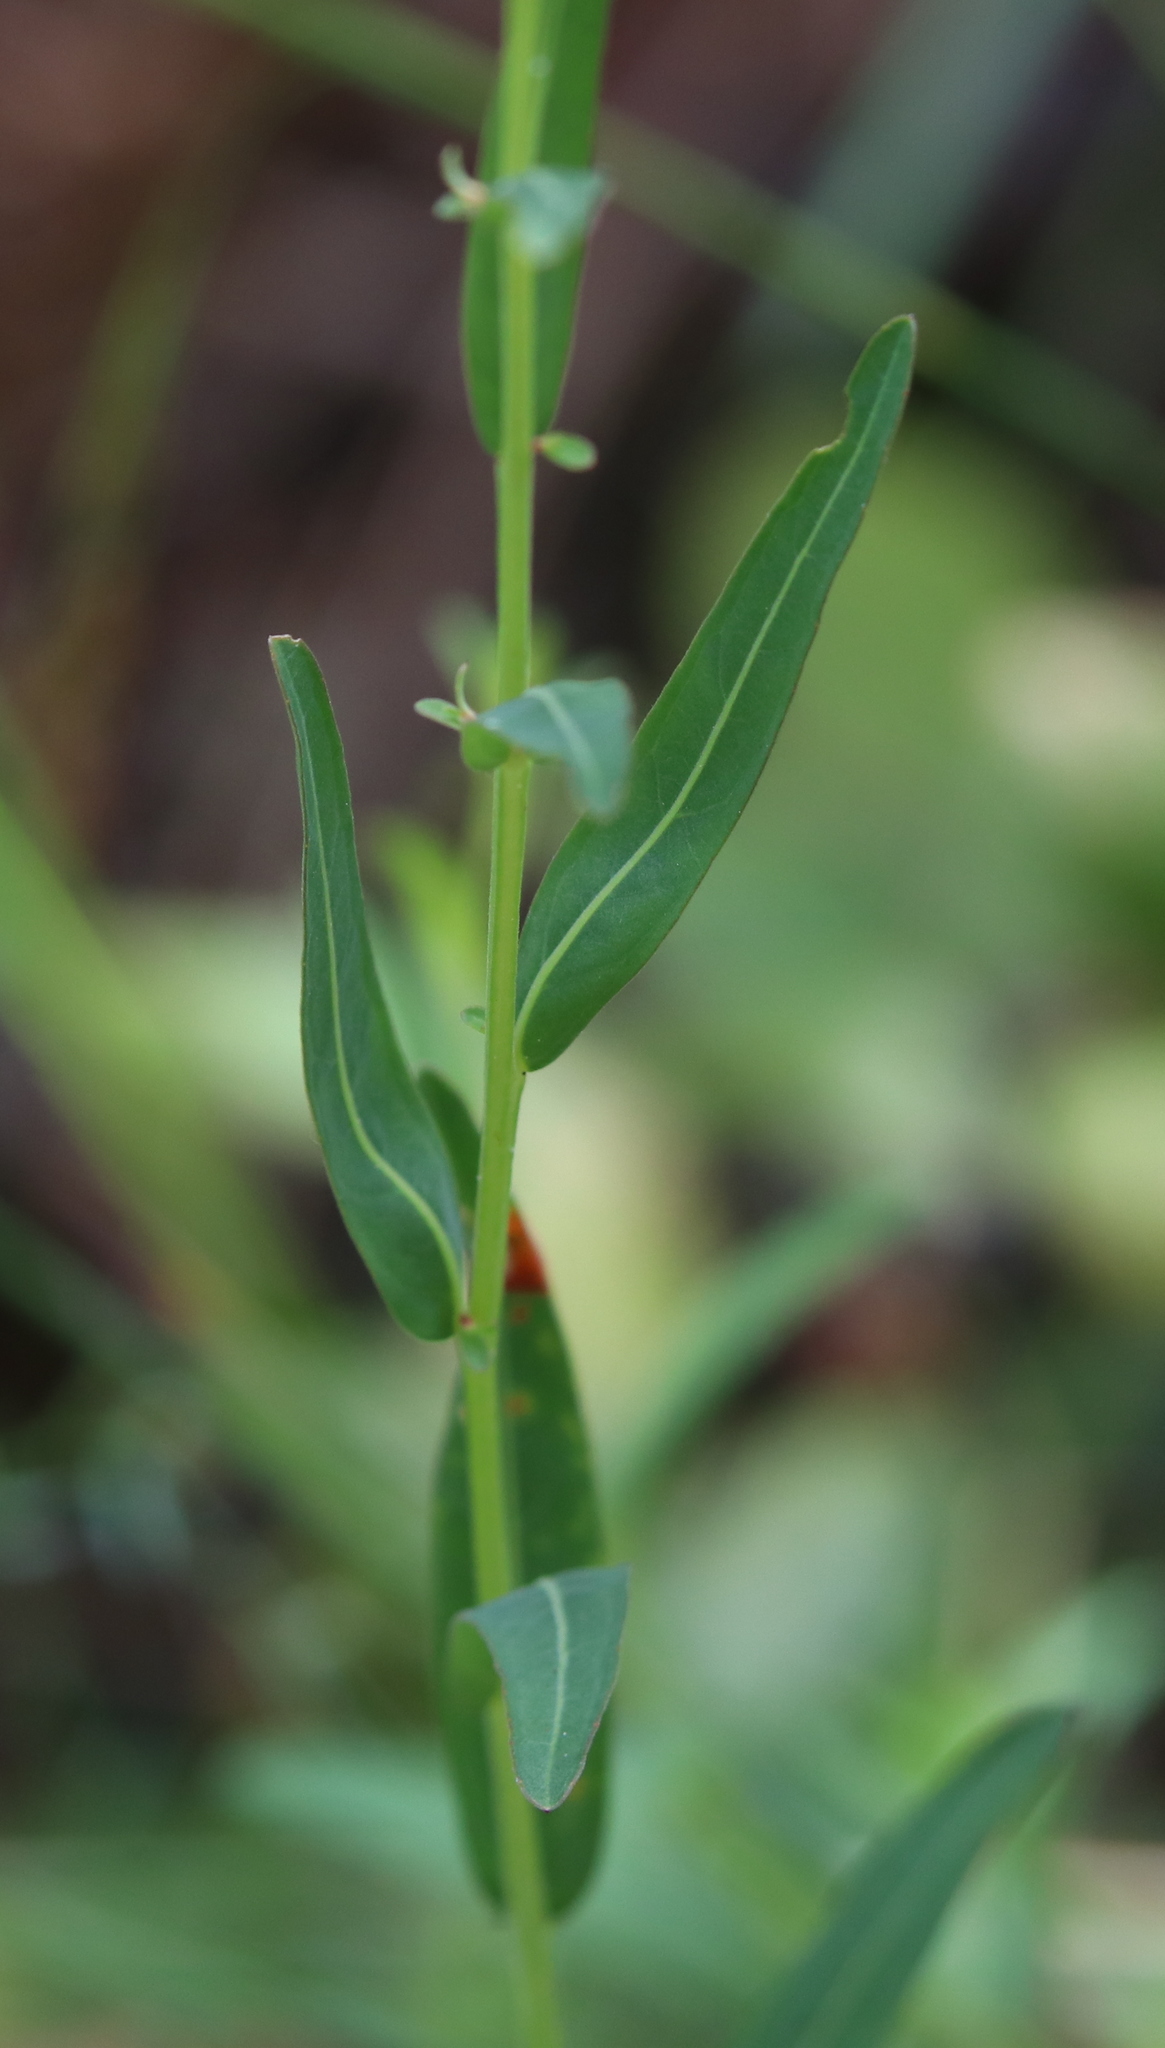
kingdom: Plantae
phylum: Tracheophyta
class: Magnoliopsida
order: Myrtales
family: Onagraceae
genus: Ludwigia
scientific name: Ludwigia virgata
